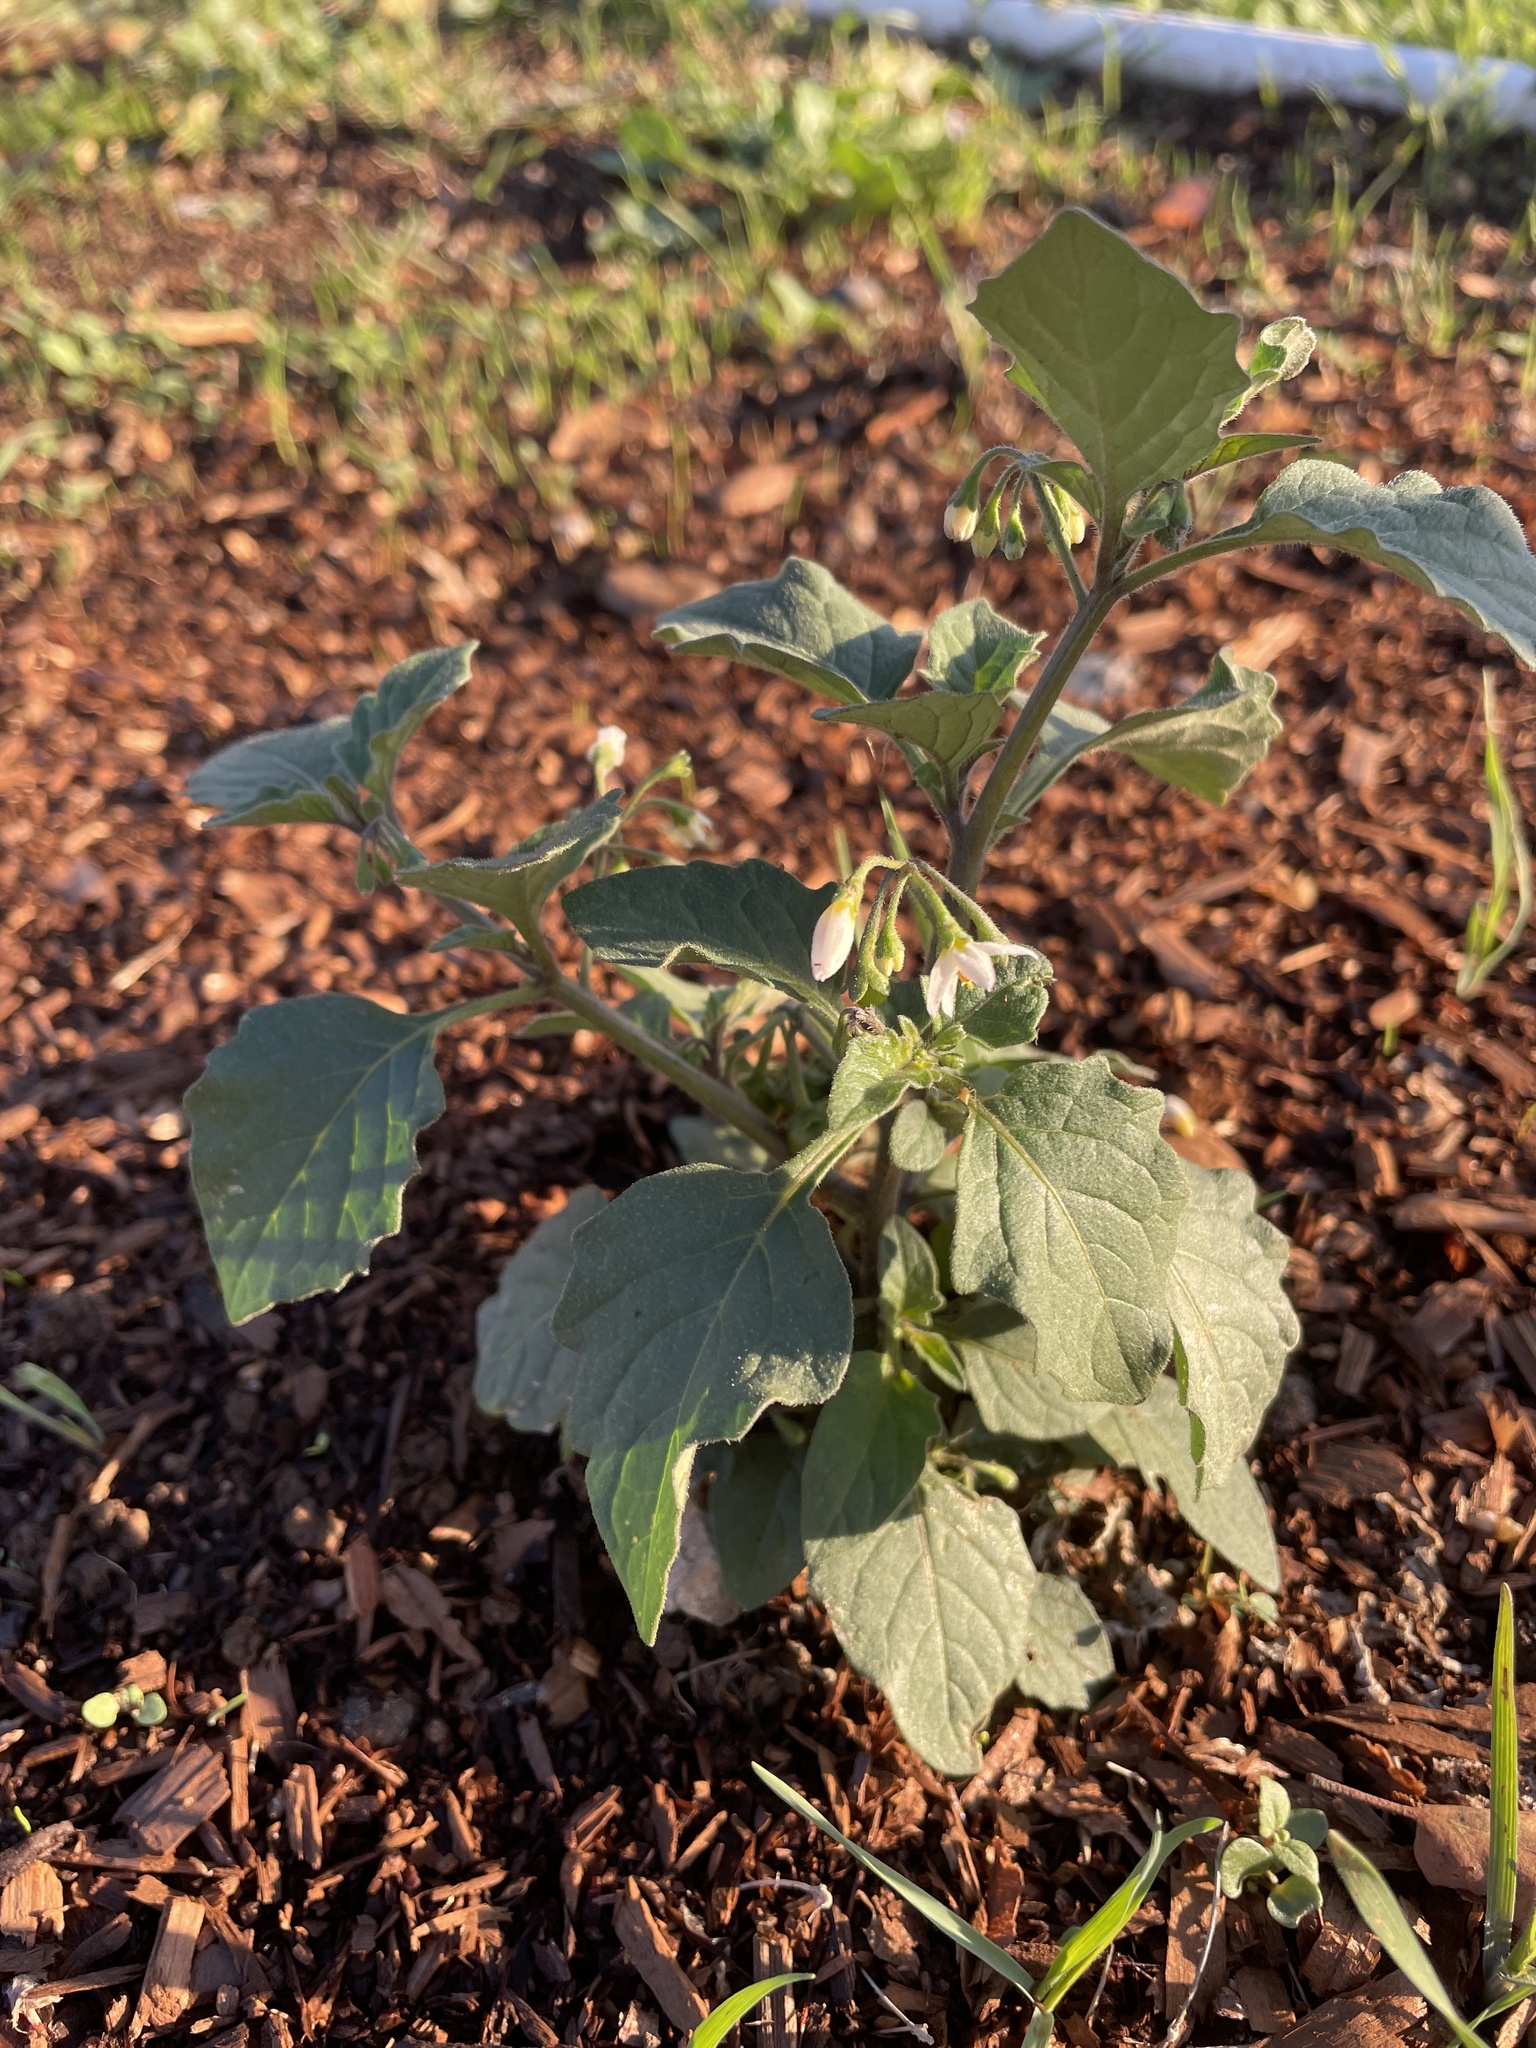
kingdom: Plantae
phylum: Tracheophyta
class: Magnoliopsida
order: Solanales
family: Solanaceae
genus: Solanum
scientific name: Solanum nigrum
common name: Black nightshade
